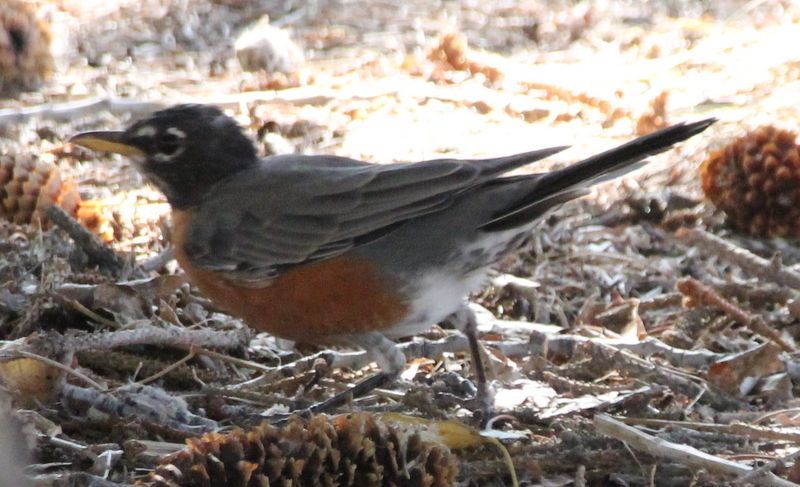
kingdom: Animalia
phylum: Chordata
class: Aves
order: Passeriformes
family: Turdidae
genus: Turdus
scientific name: Turdus migratorius
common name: American robin
